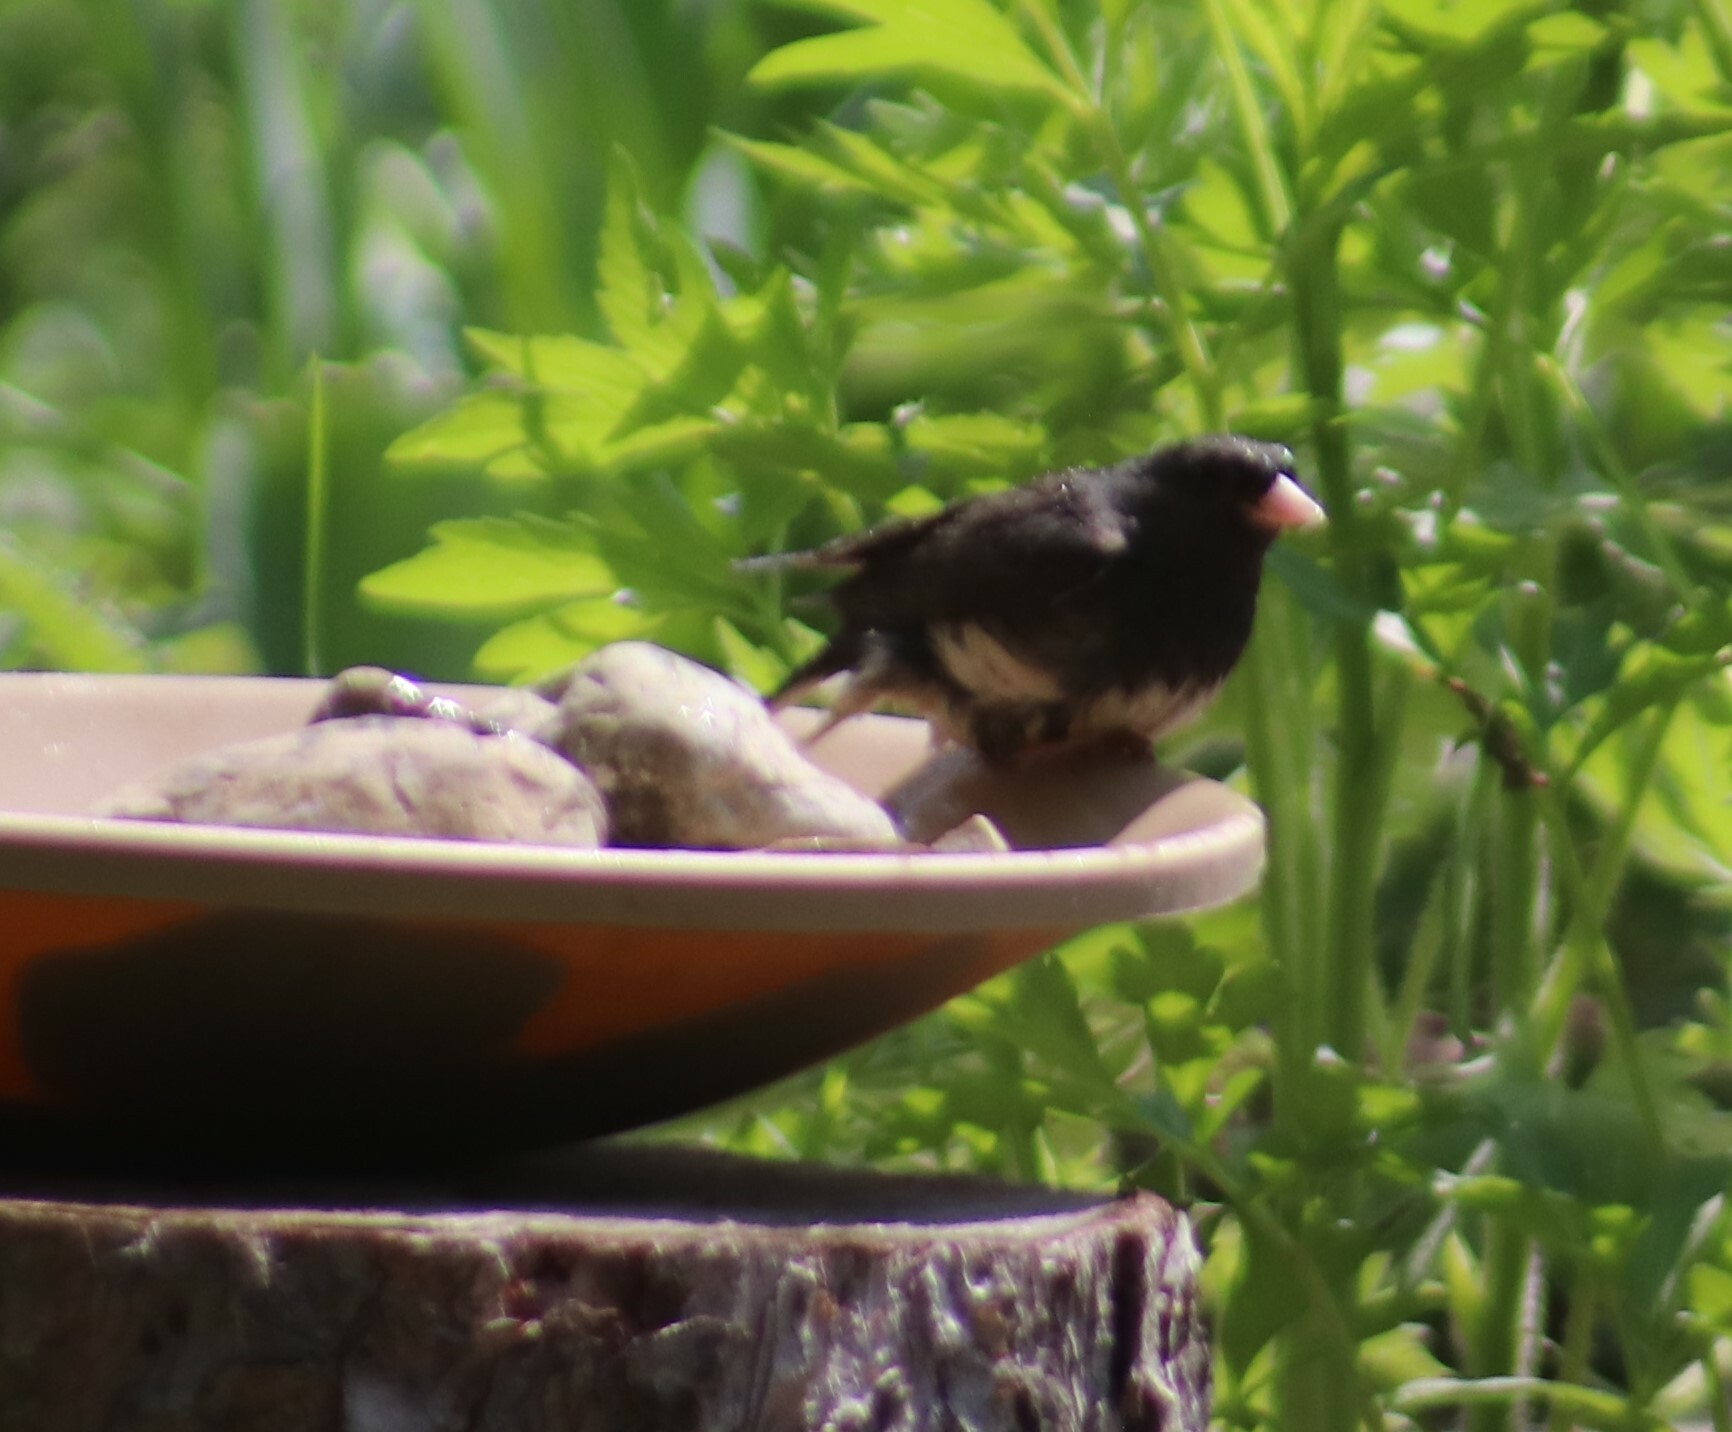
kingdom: Animalia
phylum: Chordata
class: Aves
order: Passeriformes
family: Passerellidae
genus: Junco
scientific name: Junco hyemalis
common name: Dark-eyed junco
